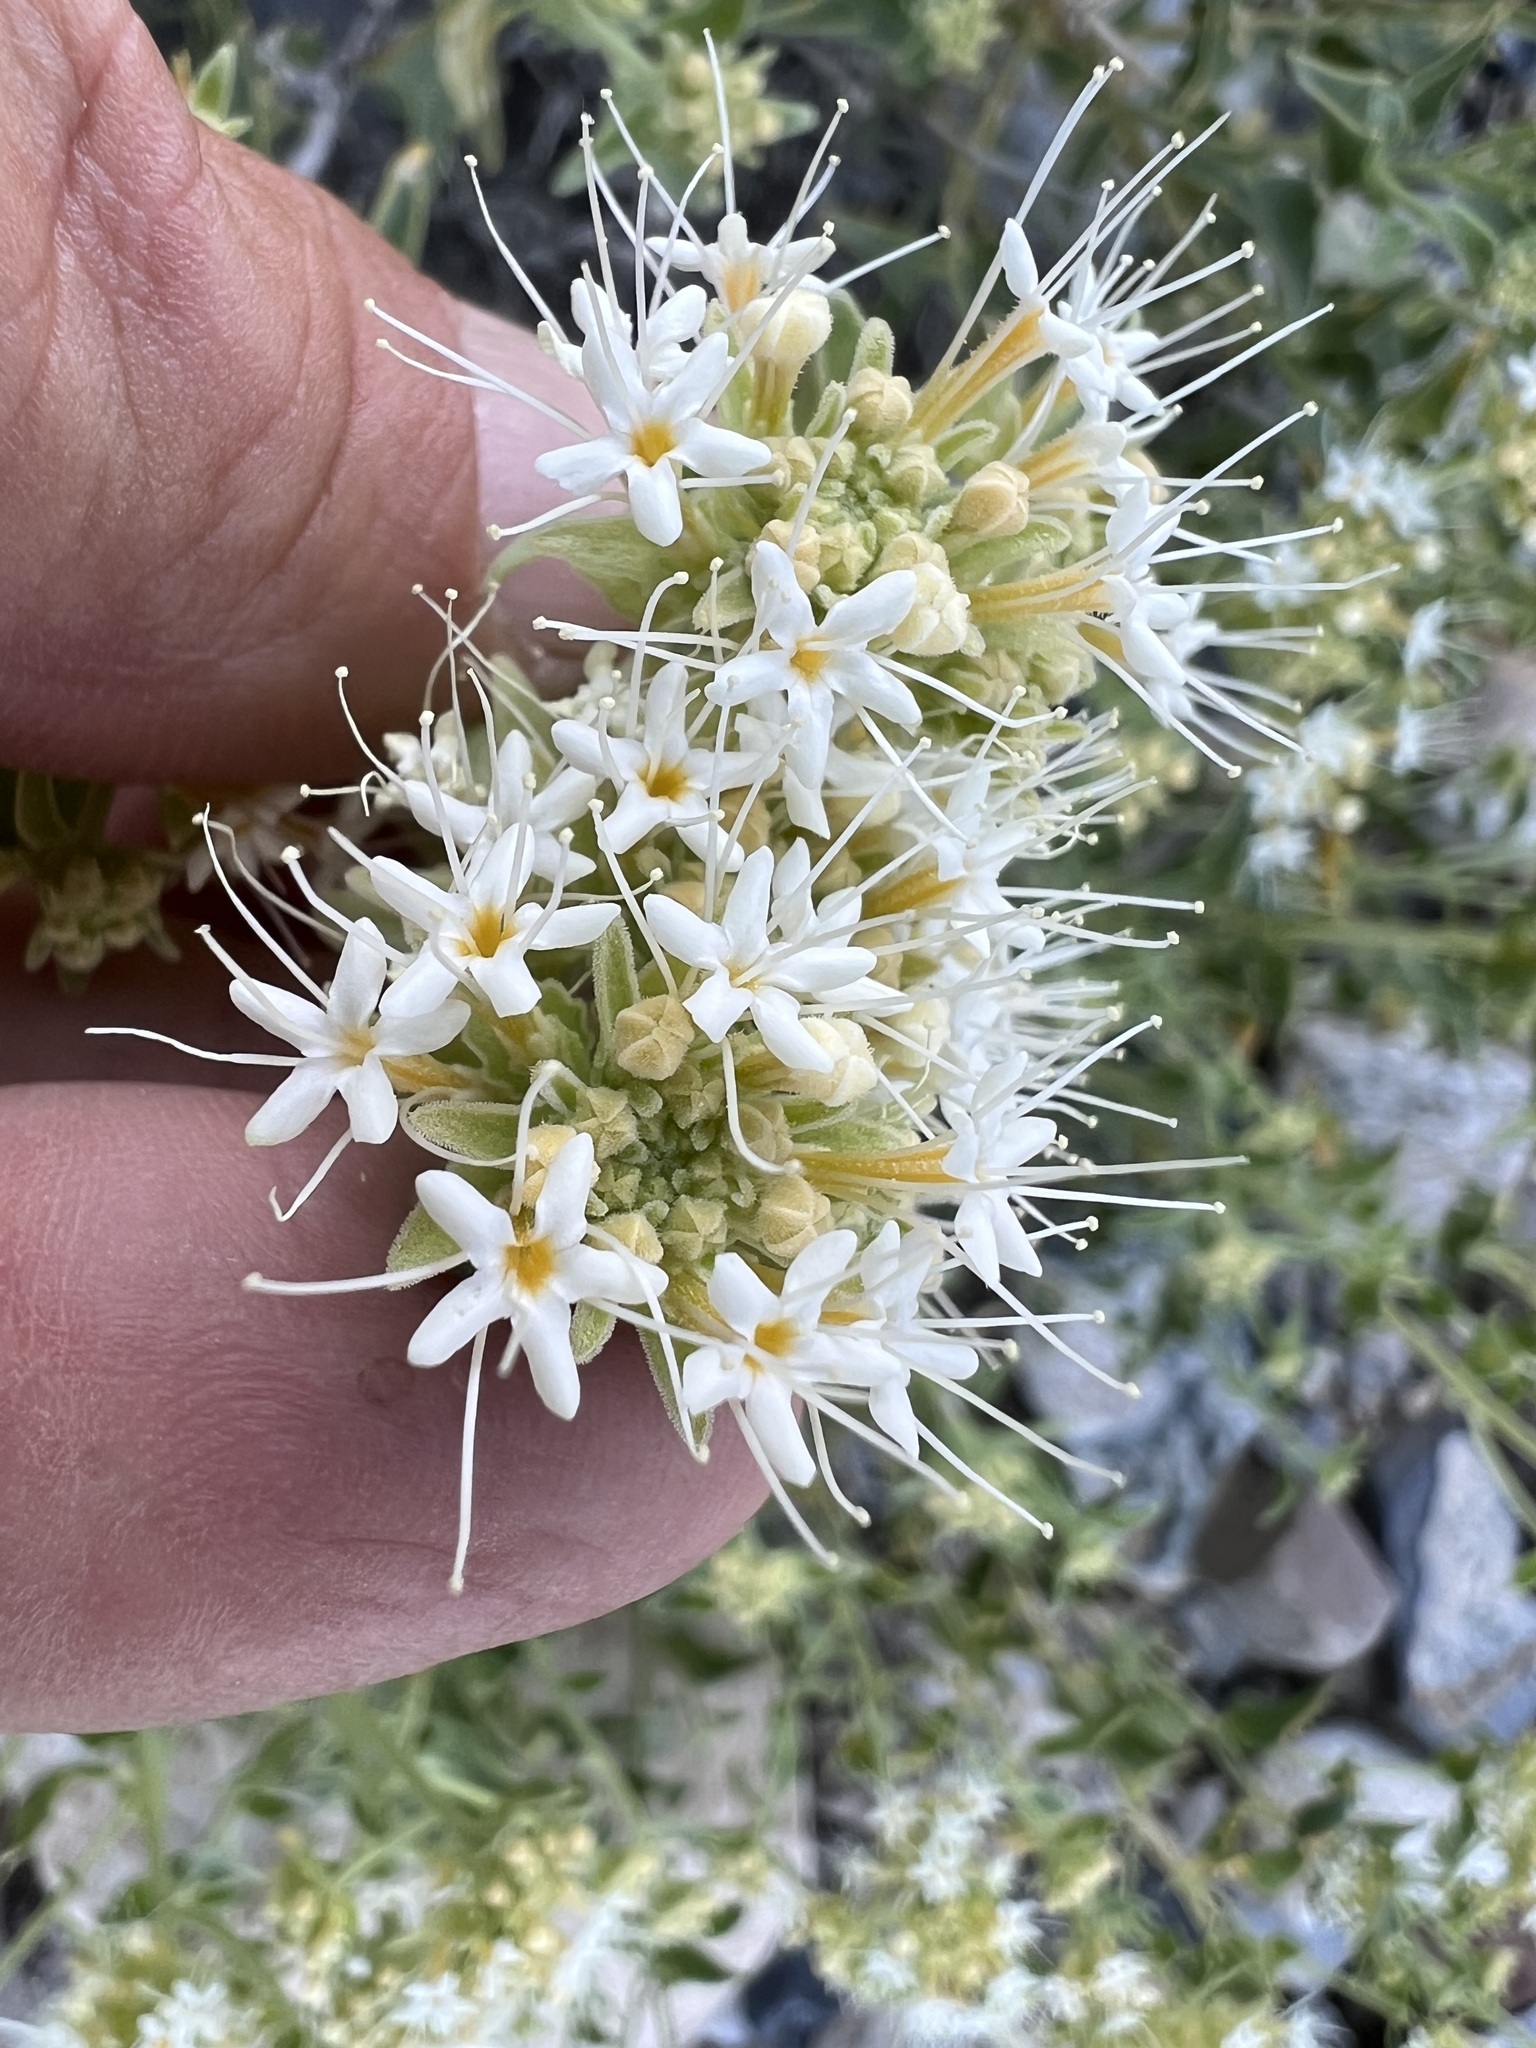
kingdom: Plantae
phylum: Tracheophyta
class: Magnoliopsida
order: Cornales
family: Loasaceae
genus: Petalonyx
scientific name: Petalonyx nitidus
